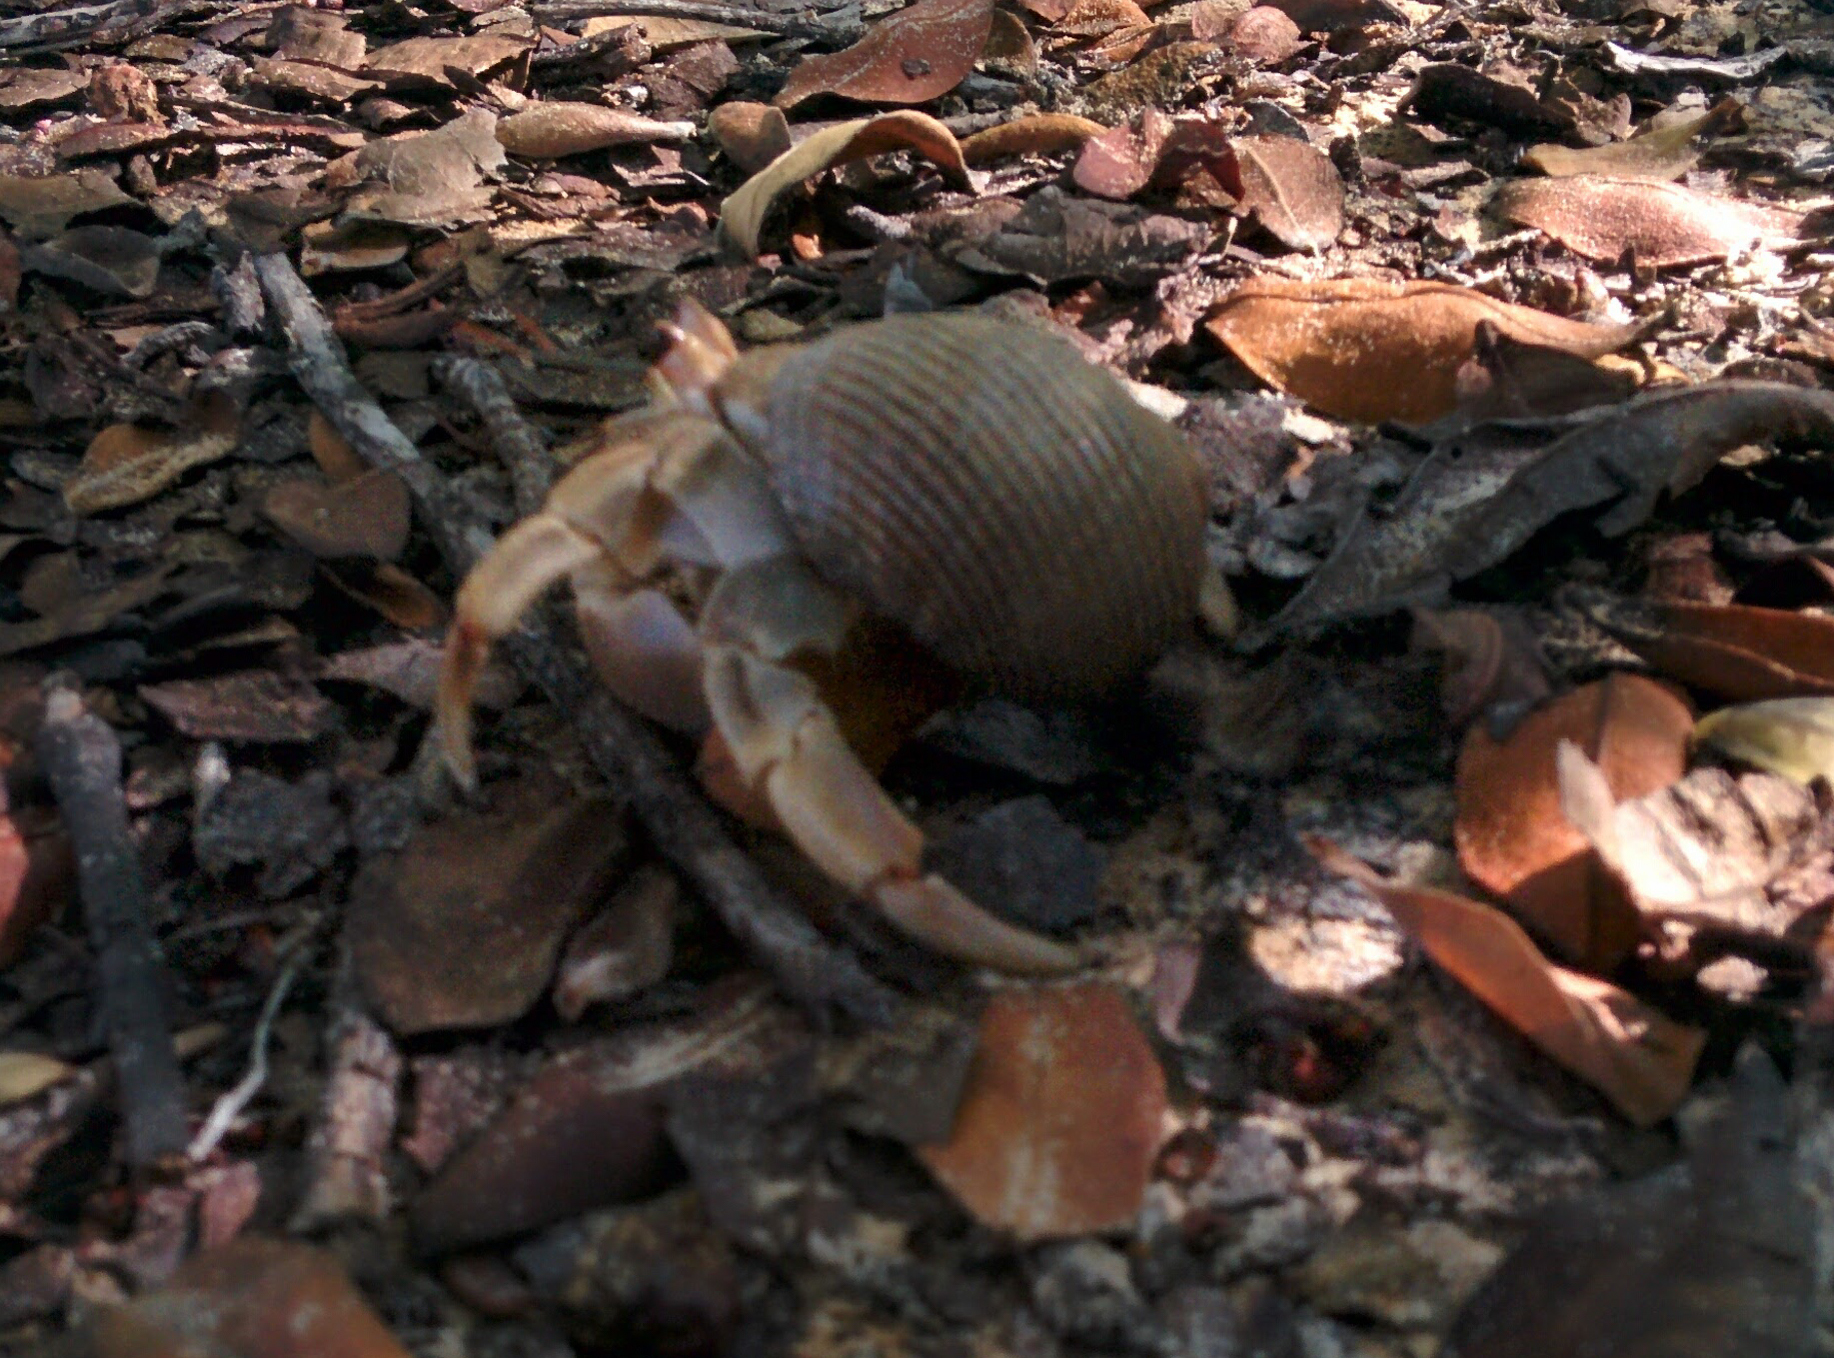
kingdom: Animalia
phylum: Arthropoda
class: Malacostraca
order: Decapoda
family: Coenobitidae
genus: Coenobita
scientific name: Coenobita compressus
